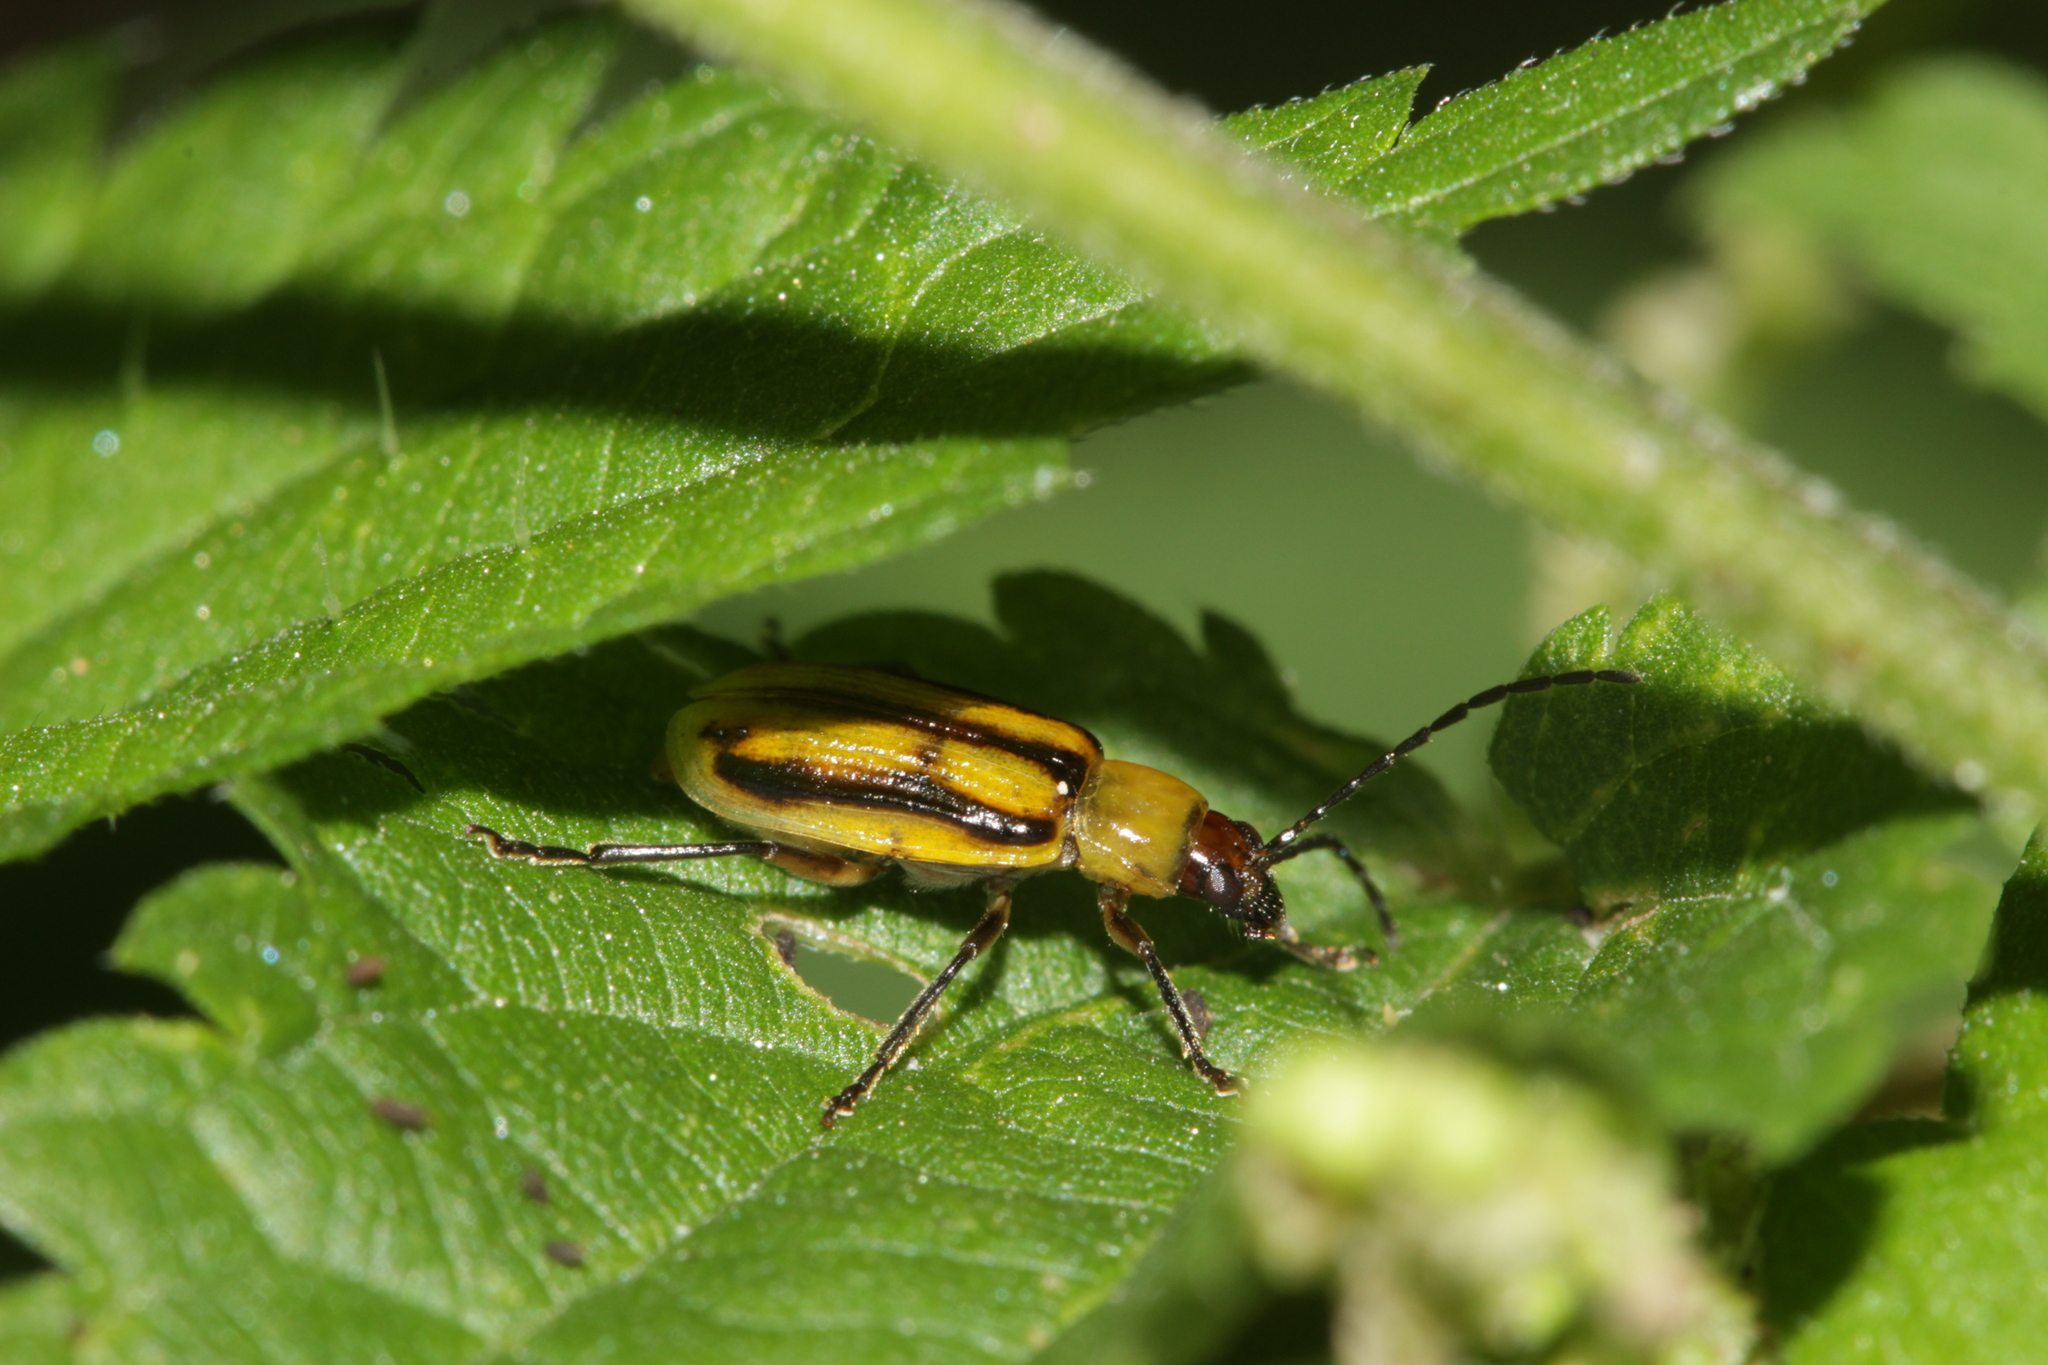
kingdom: Animalia
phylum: Arthropoda
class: Insecta
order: Coleoptera
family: Chrysomelidae
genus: Diabrotica
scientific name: Diabrotica virgifera
